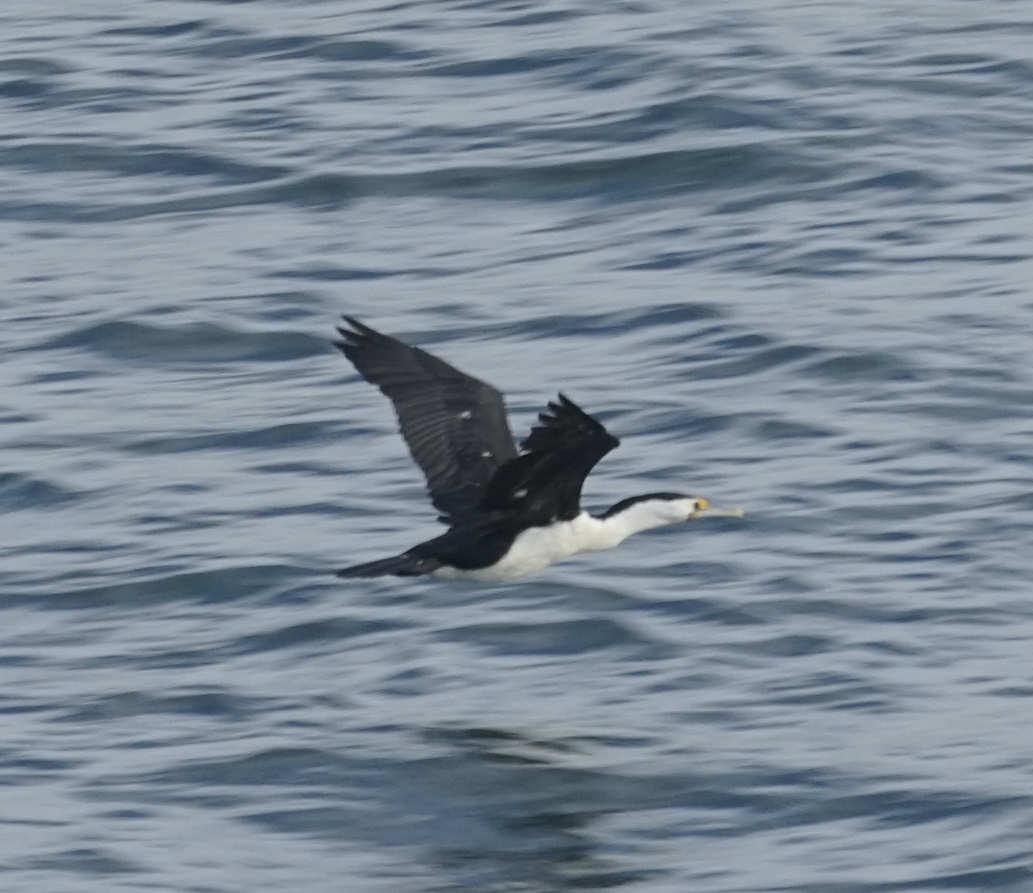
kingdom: Animalia
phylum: Chordata
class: Aves
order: Suliformes
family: Phalacrocoracidae
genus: Phalacrocorax
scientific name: Phalacrocorax varius
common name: Pied cormorant
